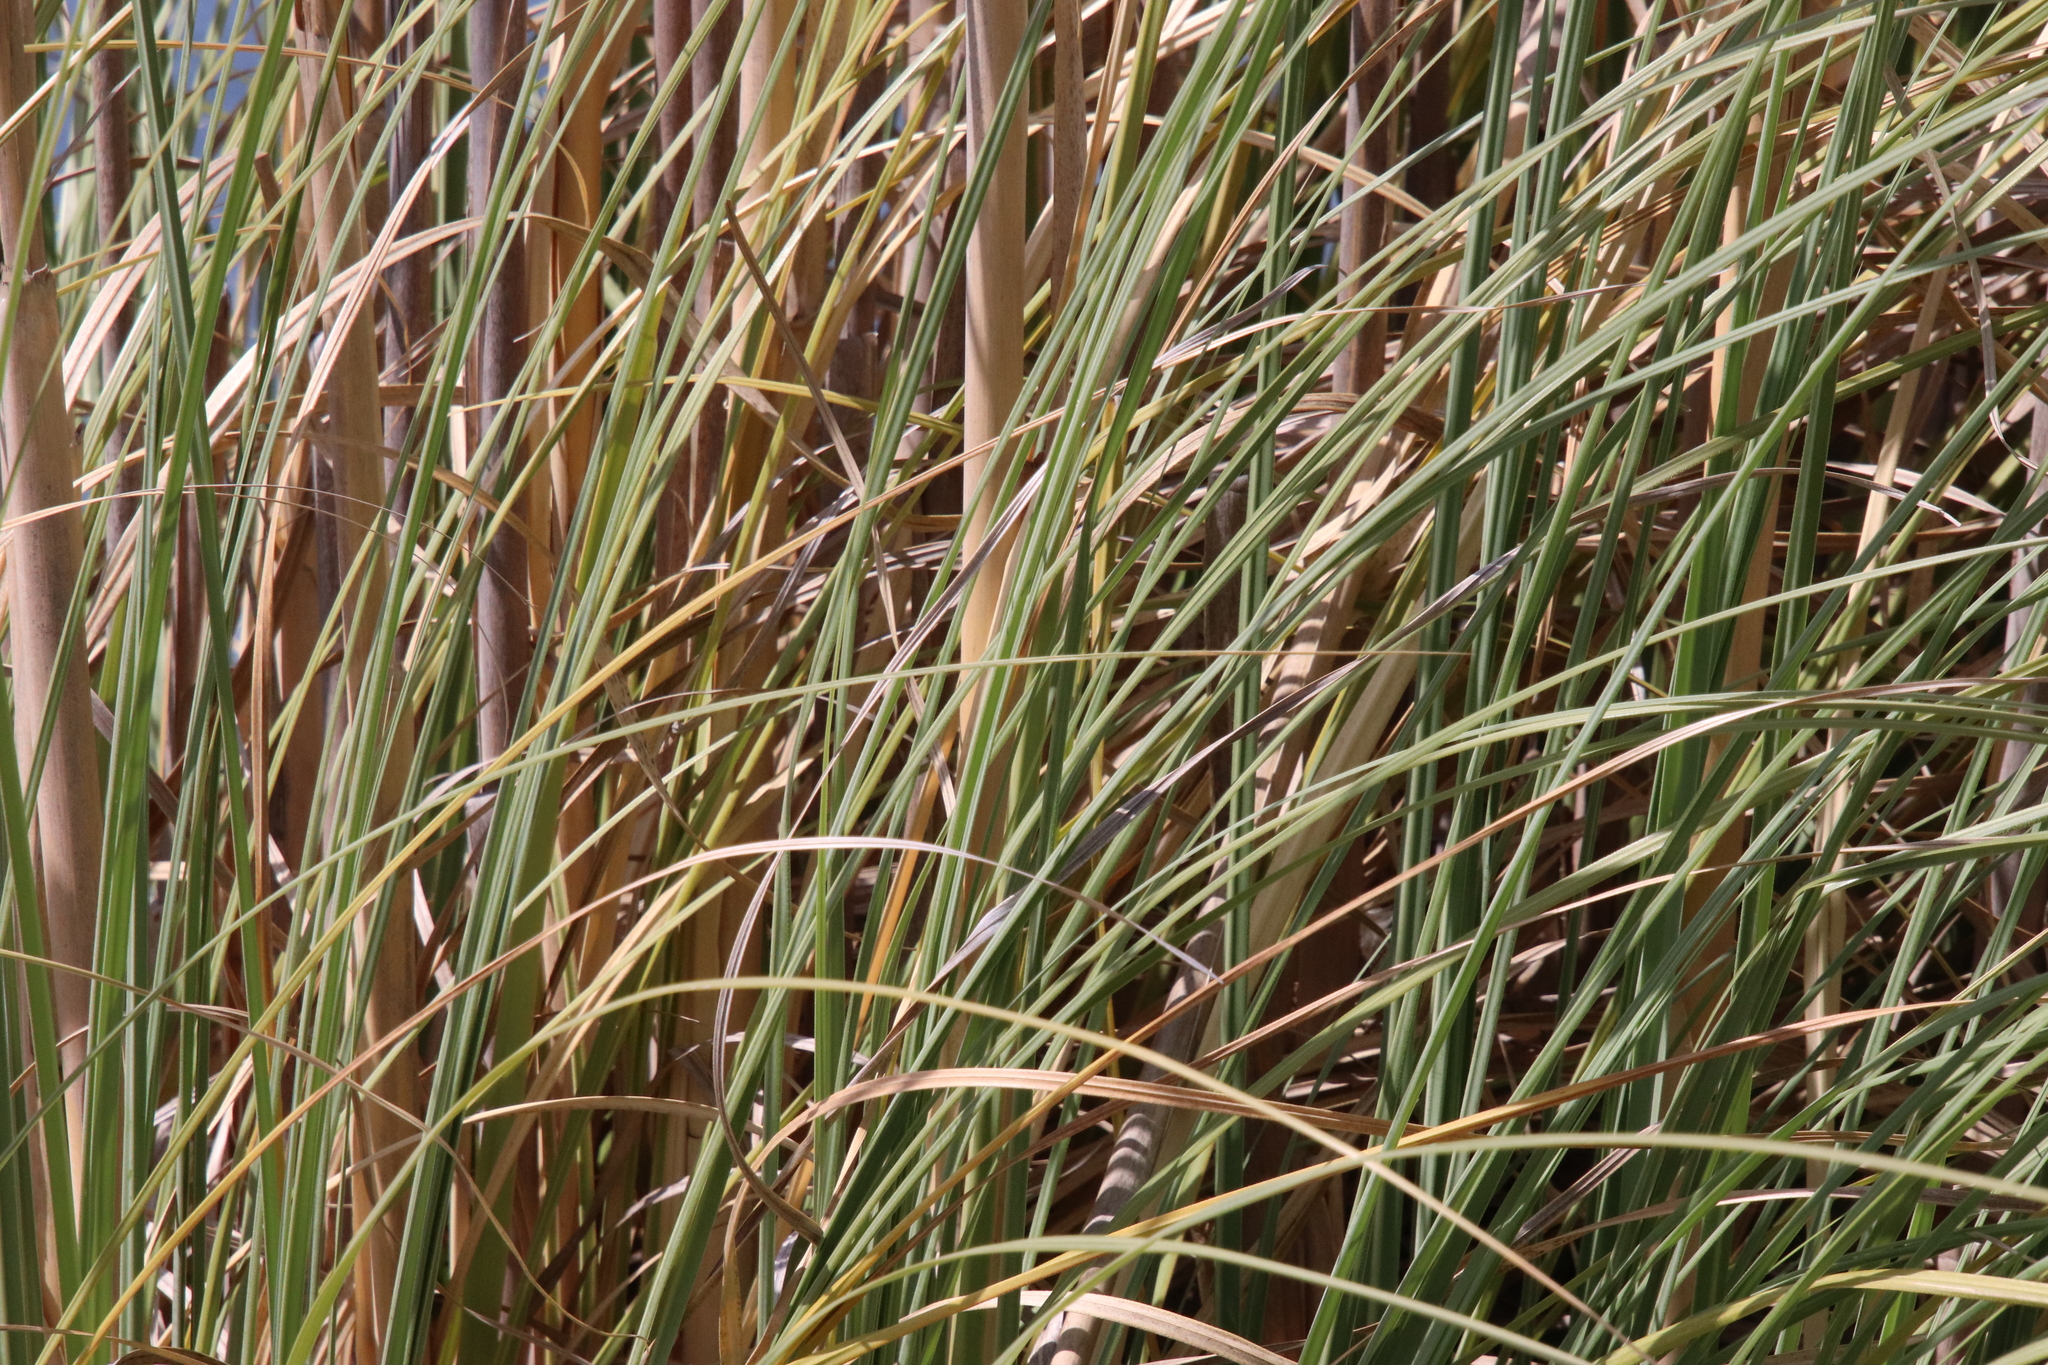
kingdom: Plantae
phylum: Tracheophyta
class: Liliopsida
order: Poales
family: Poaceae
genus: Cortaderia
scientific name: Cortaderia selloana
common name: Uruguayan pampas grass
